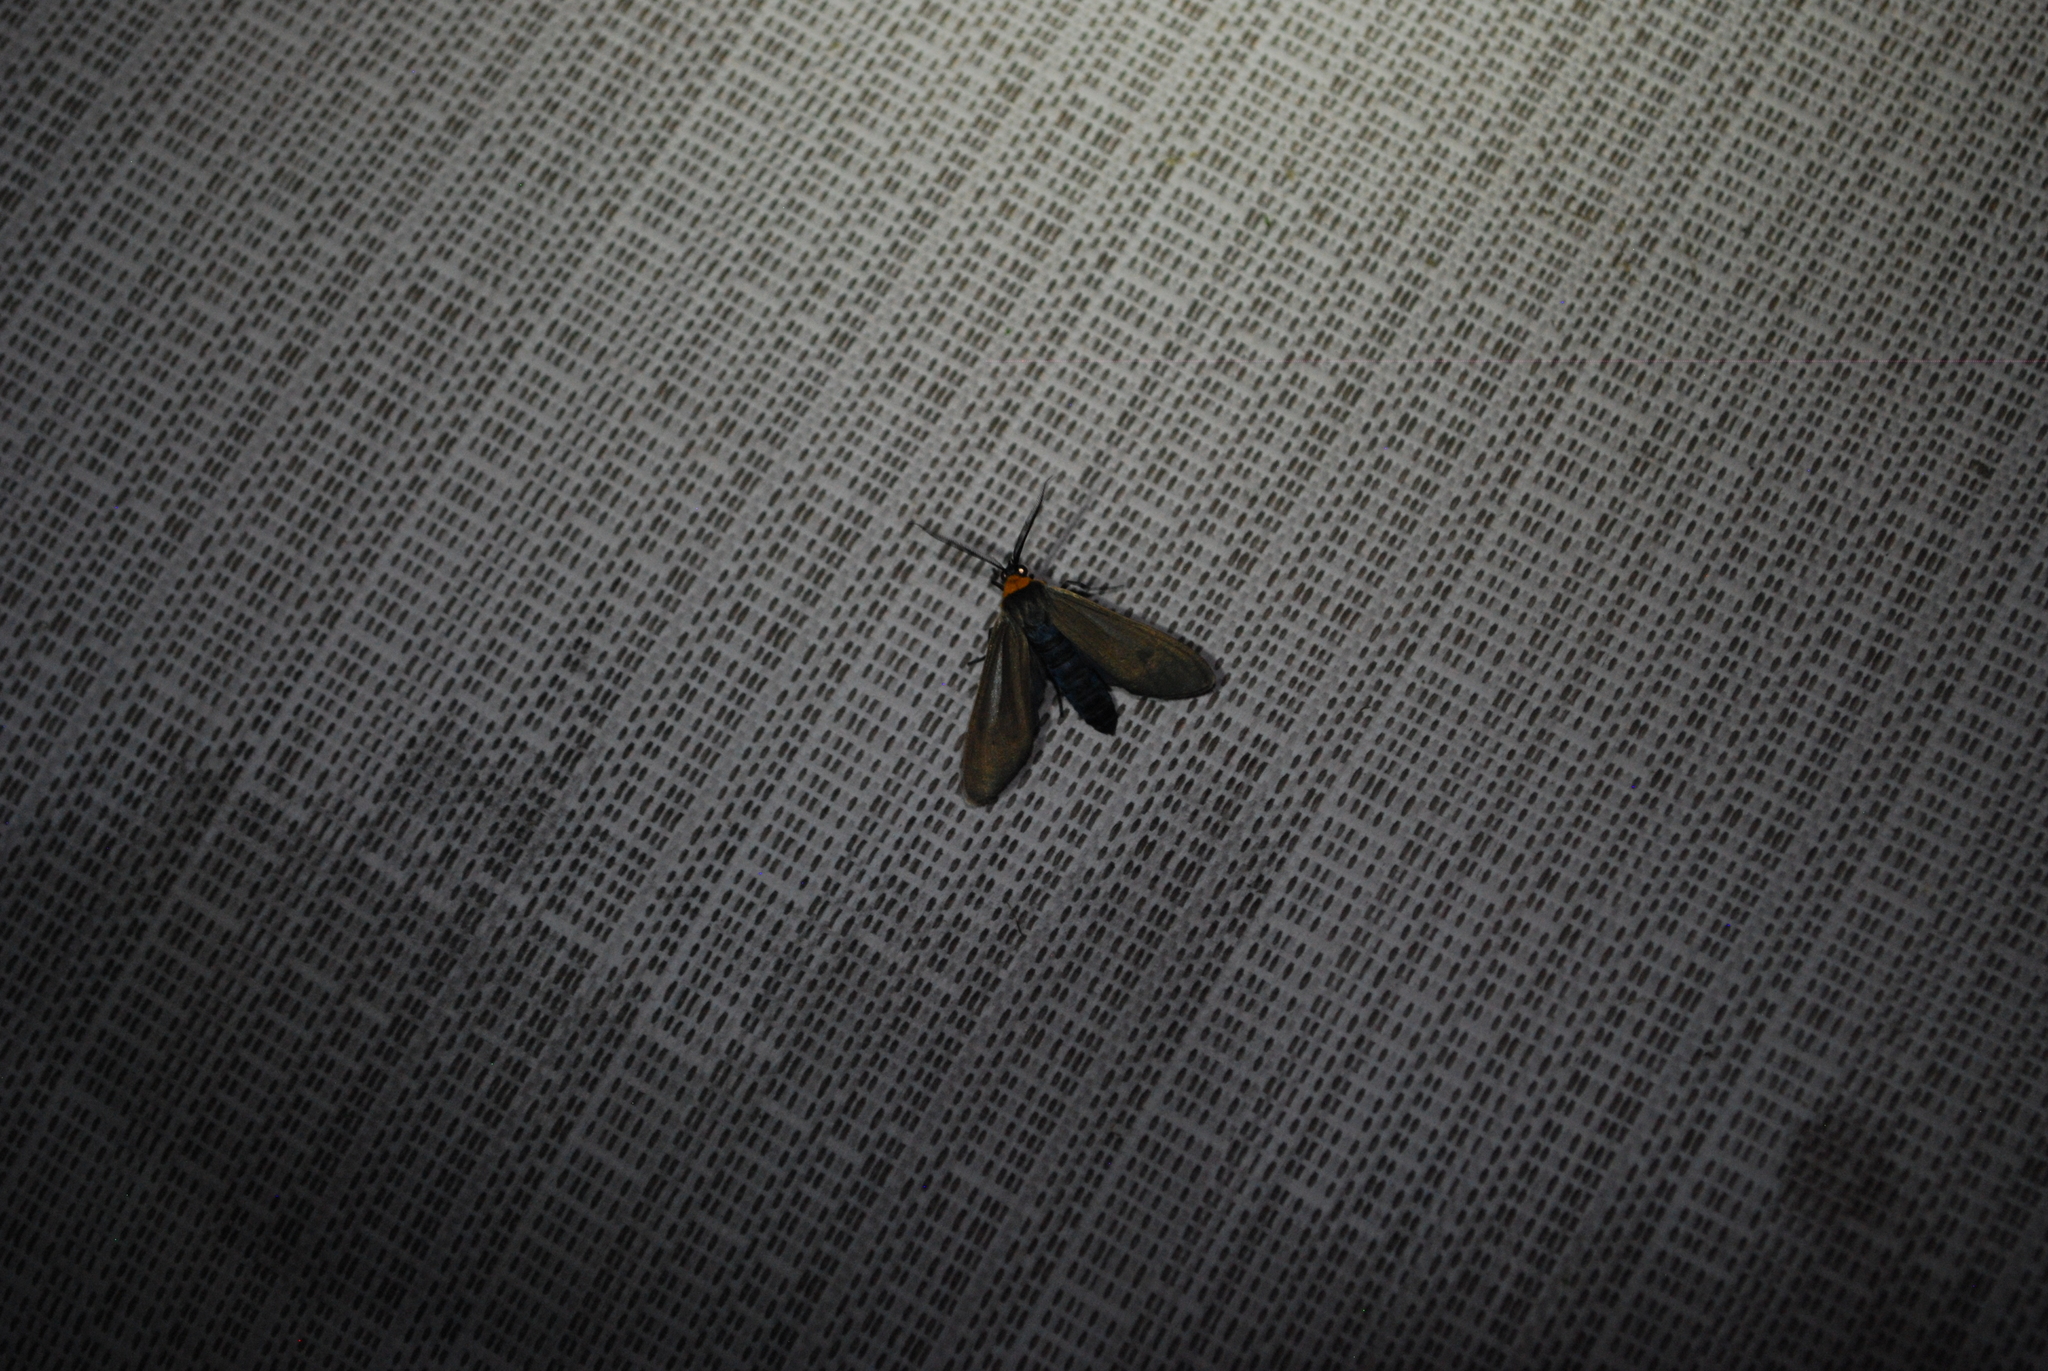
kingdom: Animalia
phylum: Arthropoda
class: Insecta
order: Lepidoptera
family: Erebidae
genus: Cisseps
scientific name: Cisseps fulvicollis
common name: Yellow-collared scape moth
